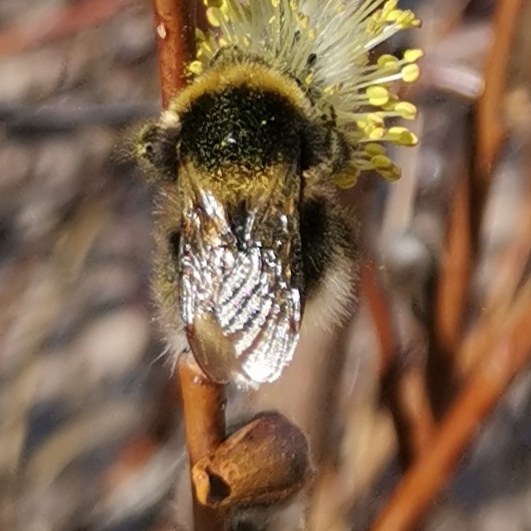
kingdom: Animalia
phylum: Arthropoda
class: Insecta
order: Hymenoptera
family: Apidae
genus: Bombus
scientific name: Bombus
